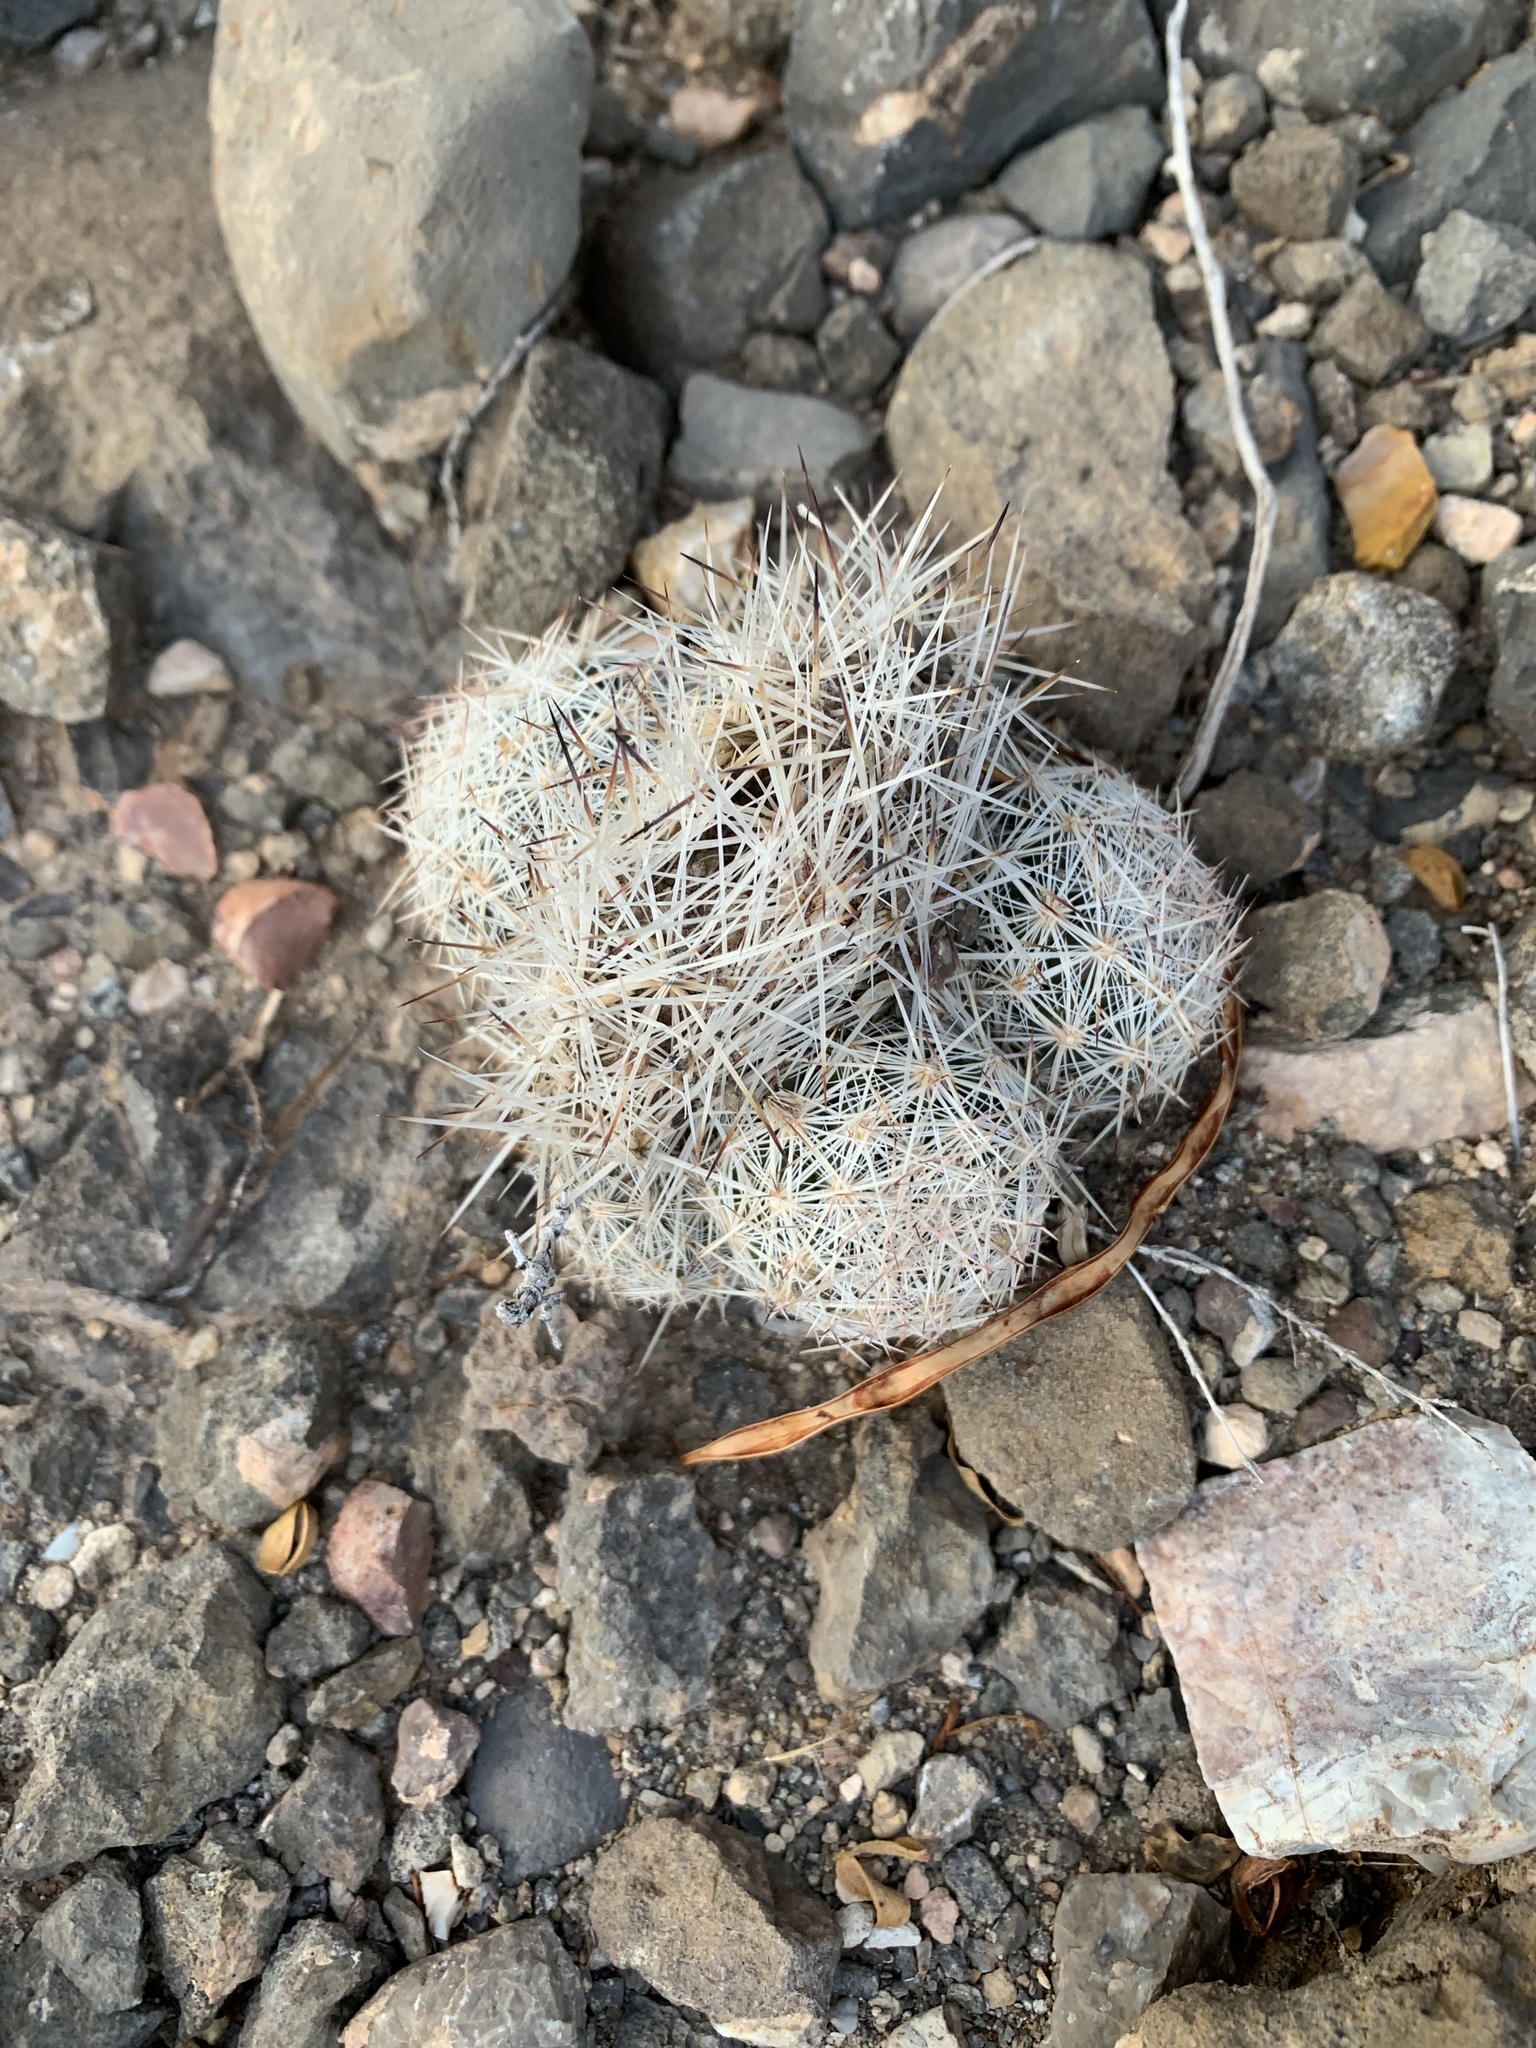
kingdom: Plantae
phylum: Tracheophyta
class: Magnoliopsida
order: Caryophyllales
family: Cactaceae
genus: Pelecyphora
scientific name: Pelecyphora tuberculosa
